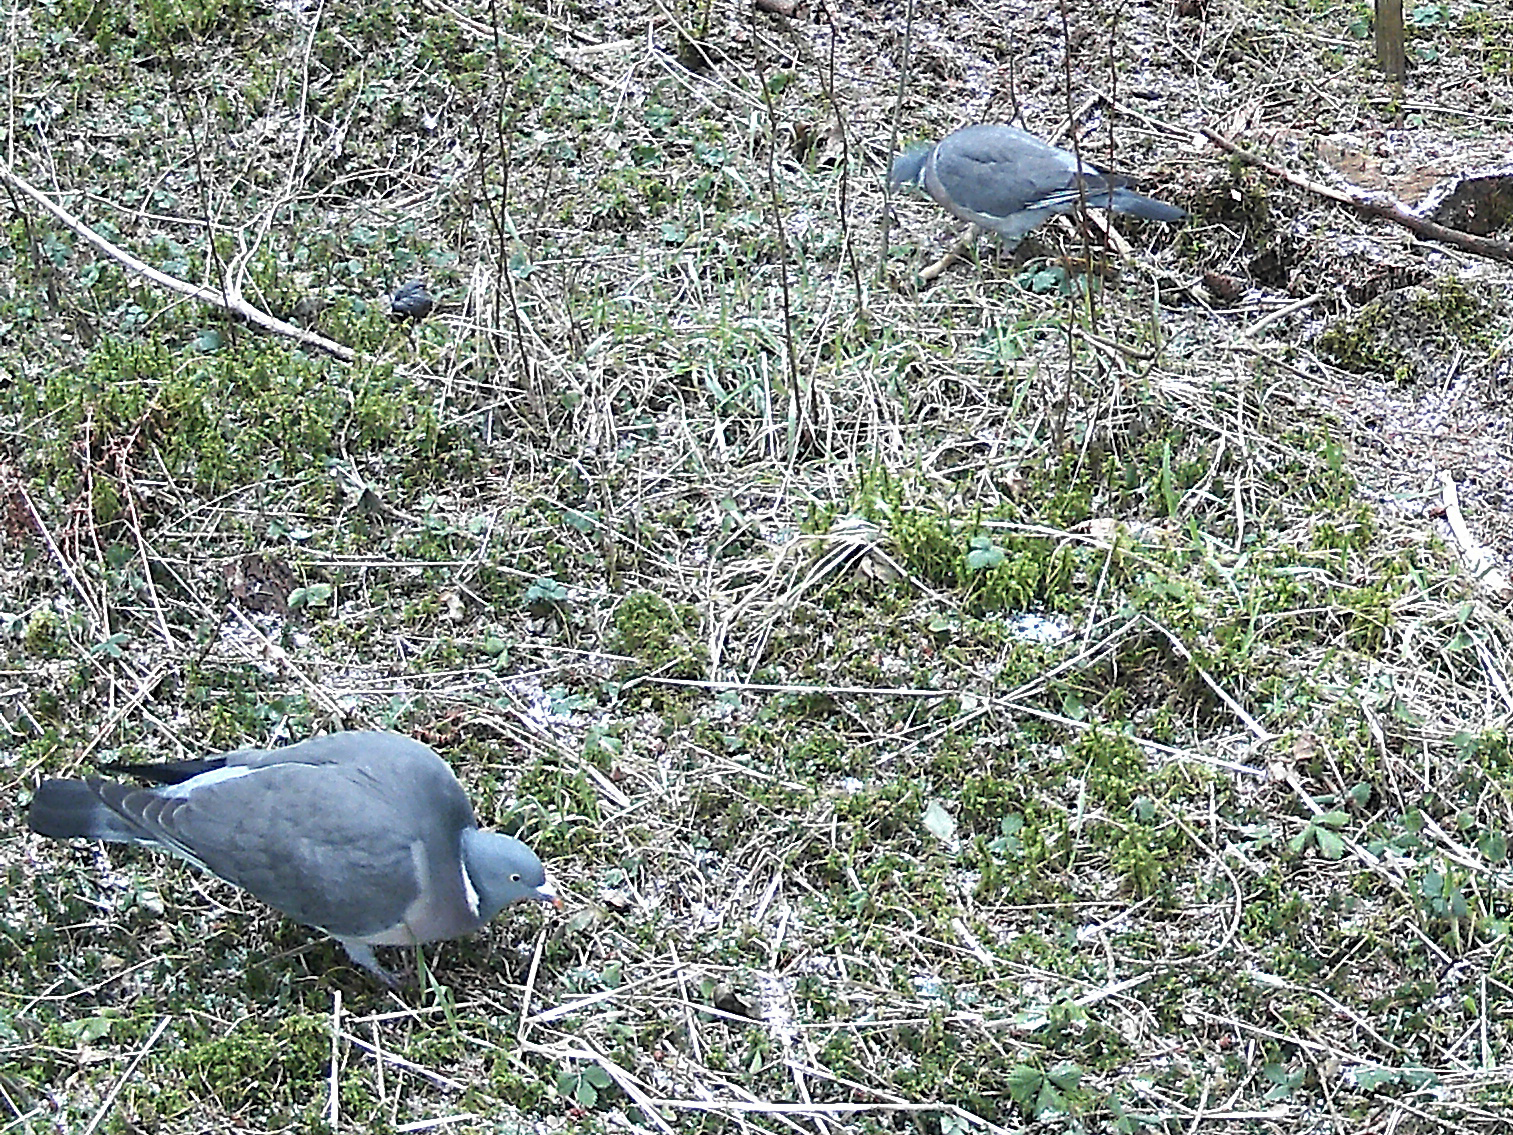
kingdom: Animalia
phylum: Chordata
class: Aves
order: Columbiformes
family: Columbidae
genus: Columba
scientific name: Columba palumbus
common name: Common wood pigeon
